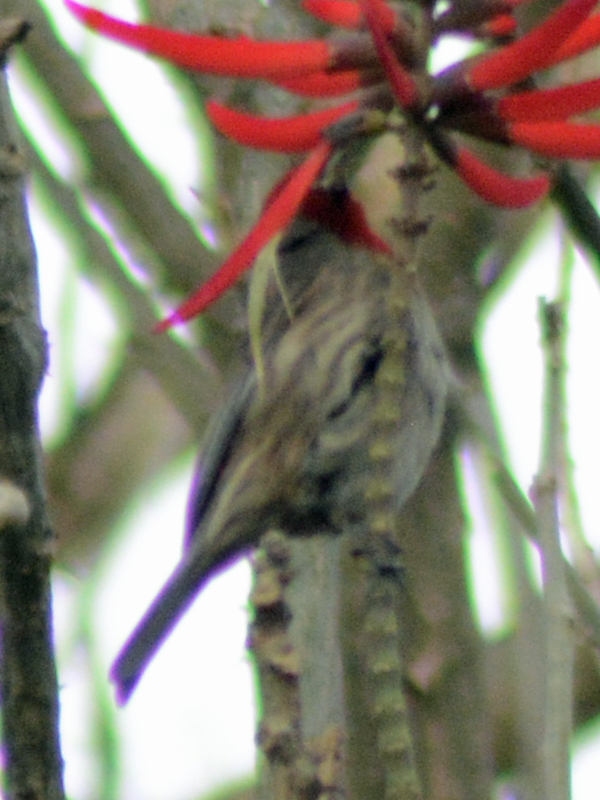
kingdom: Animalia
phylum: Chordata
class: Aves
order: Passeriformes
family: Fringillidae
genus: Haemorhous
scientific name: Haemorhous mexicanus
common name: House finch
